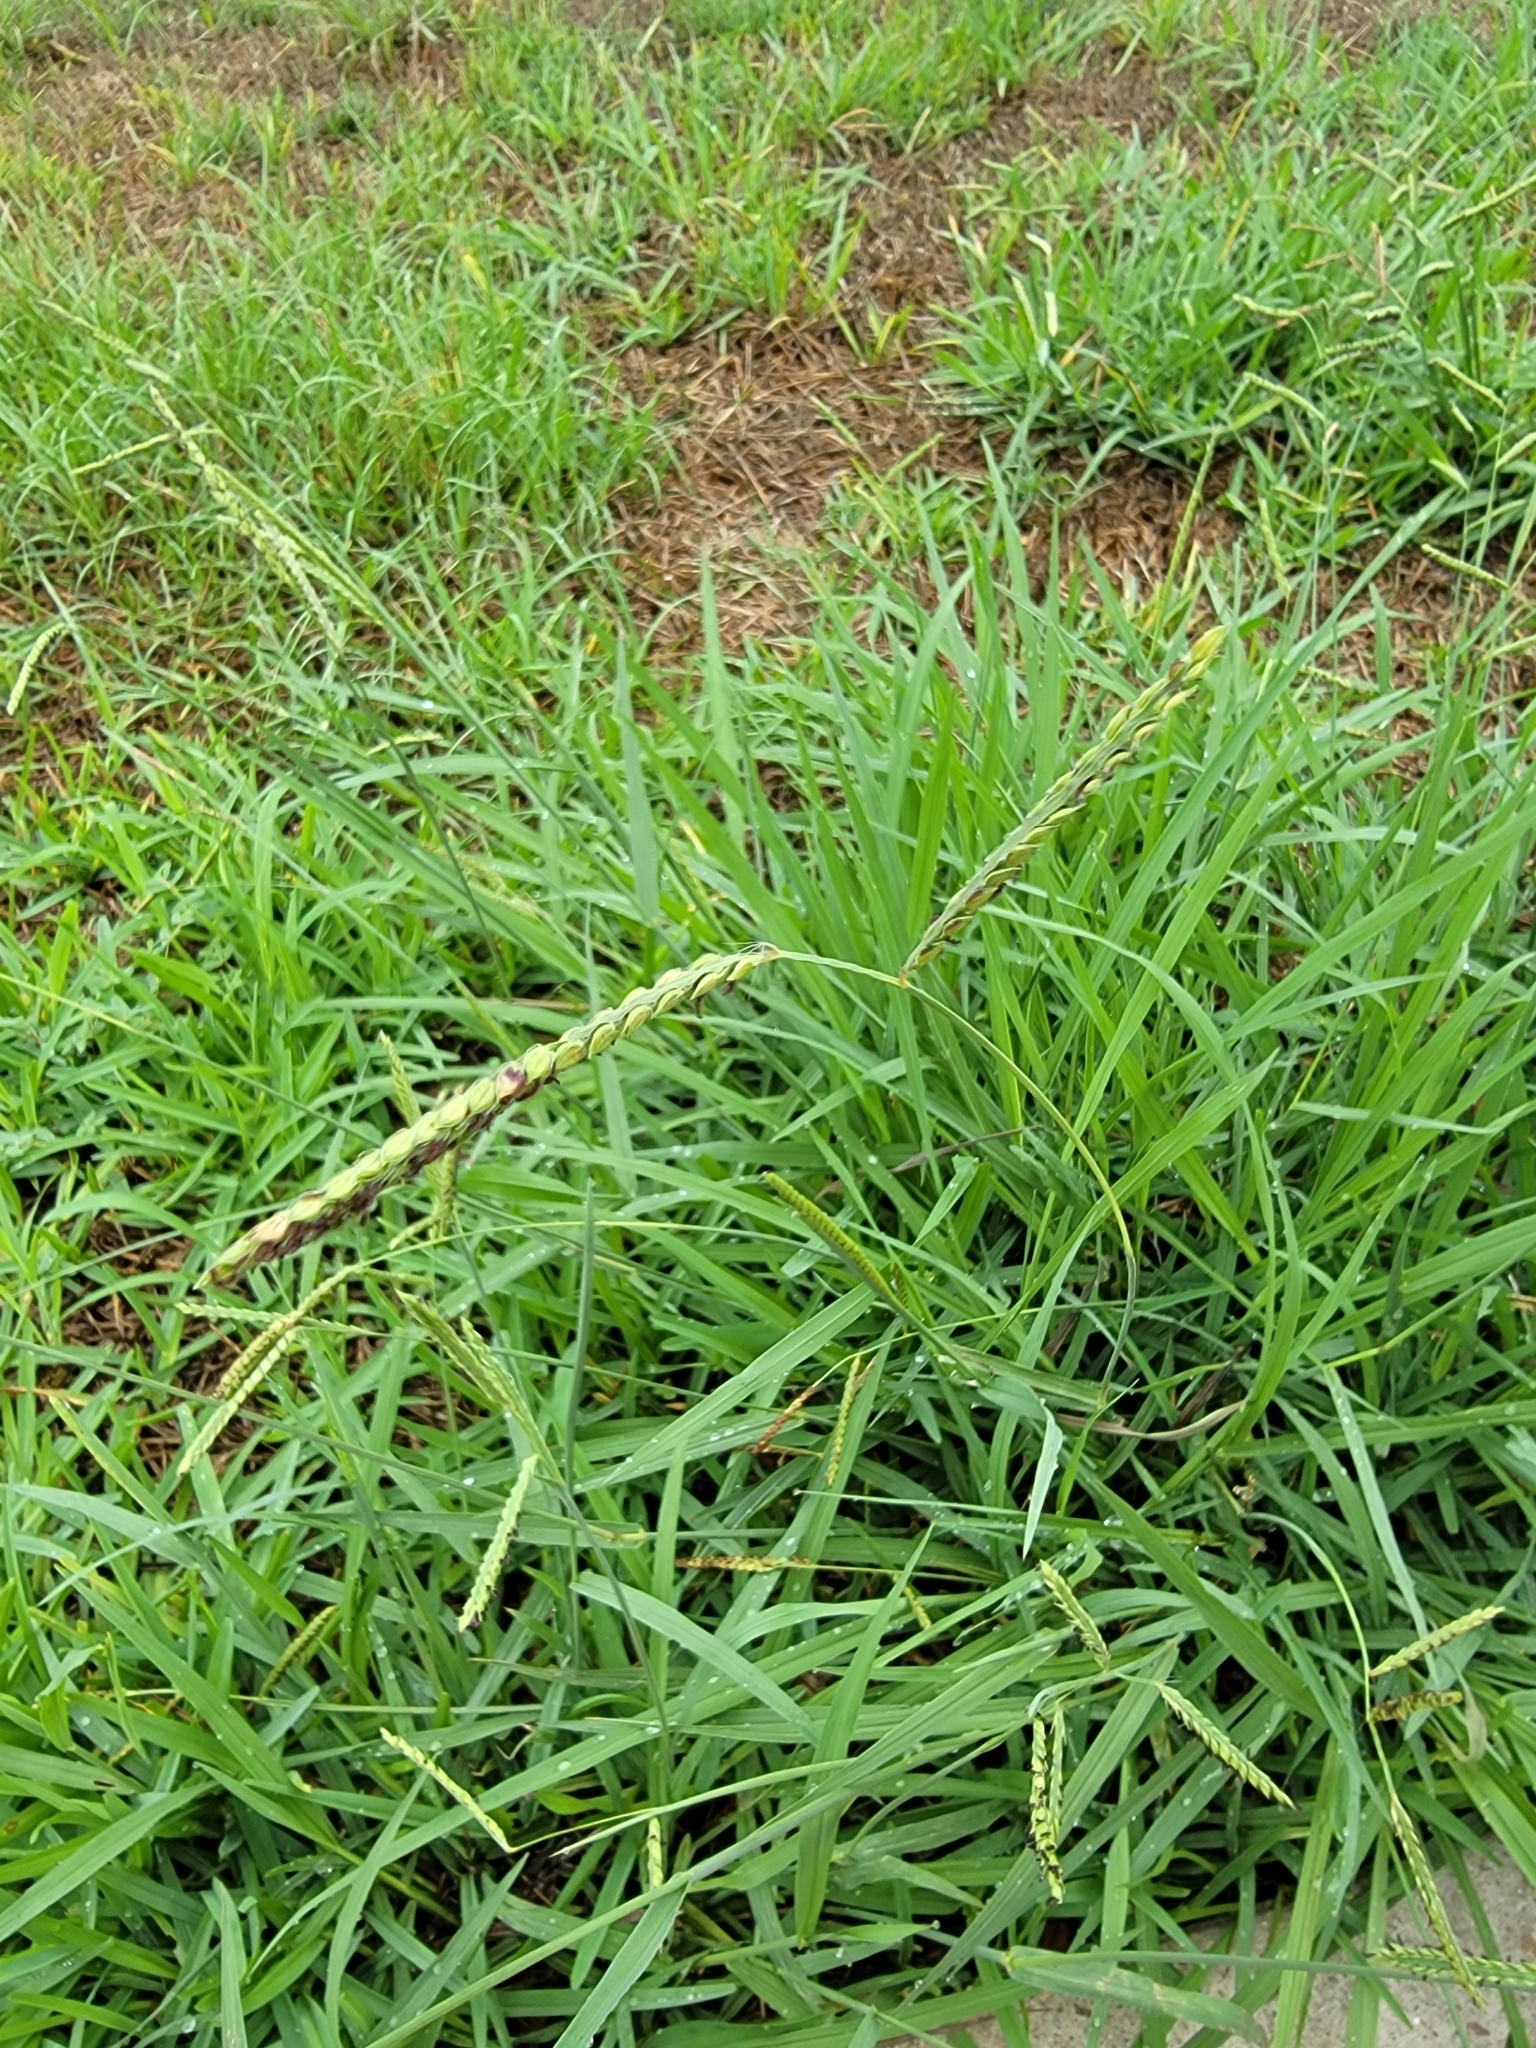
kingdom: Plantae
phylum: Tracheophyta
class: Liliopsida
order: Poales
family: Poaceae
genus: Paspalum
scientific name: Paspalum dilatatum
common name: Dallisgrass
